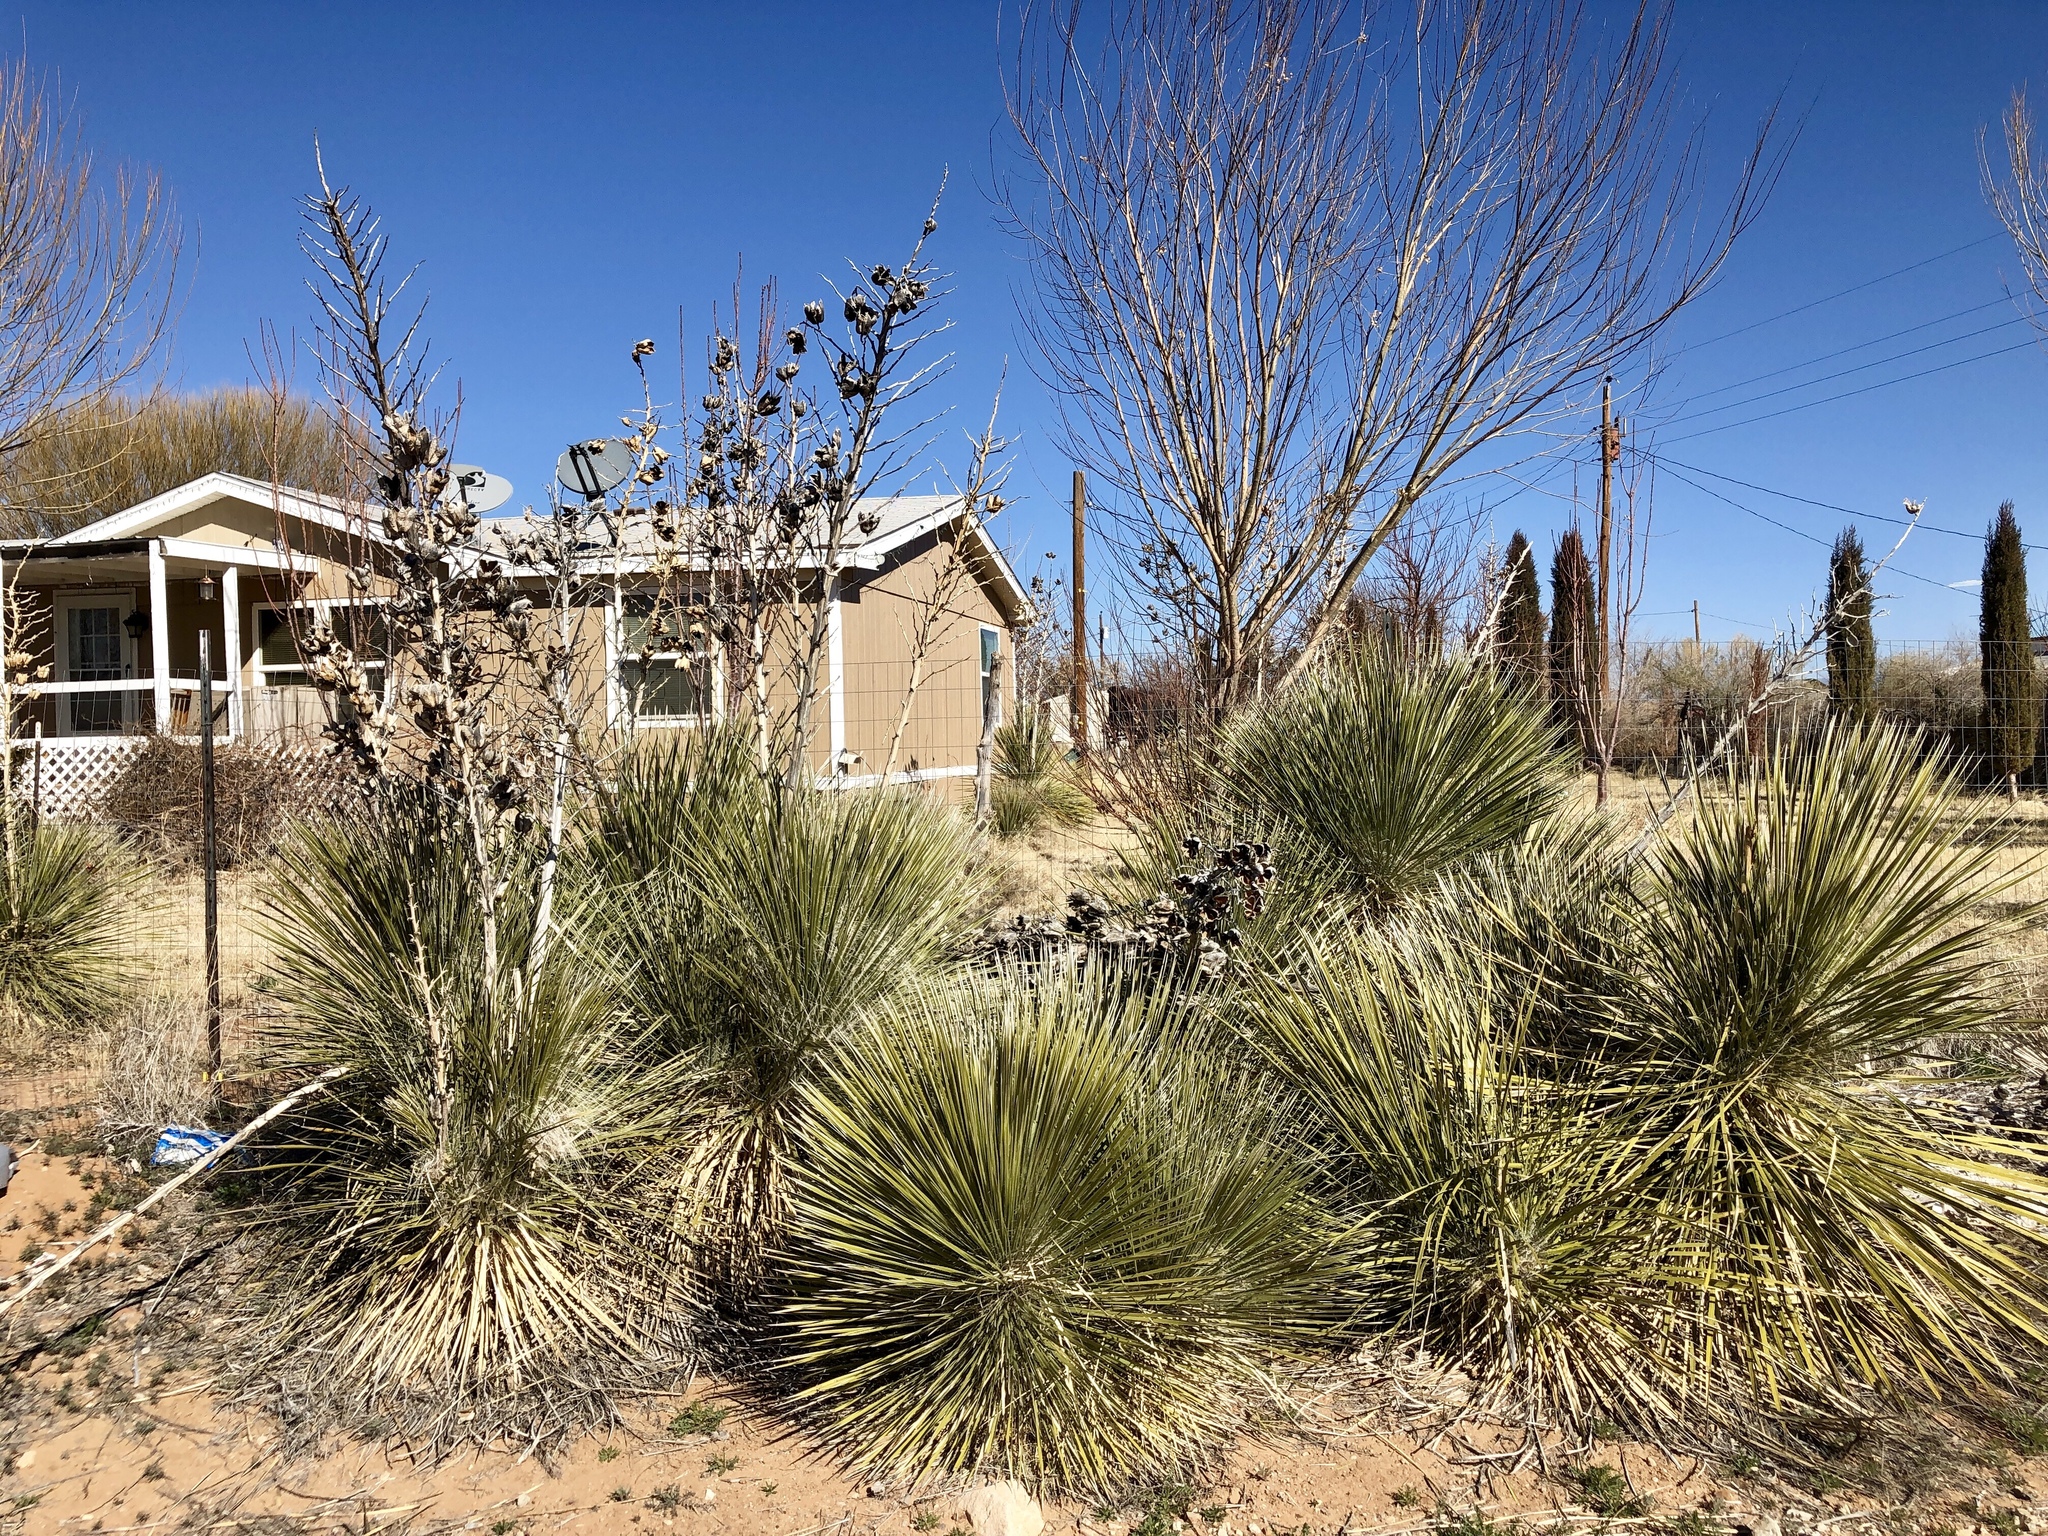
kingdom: Plantae
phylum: Tracheophyta
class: Liliopsida
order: Asparagales
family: Asparagaceae
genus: Yucca
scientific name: Yucca elata
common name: Palmella
